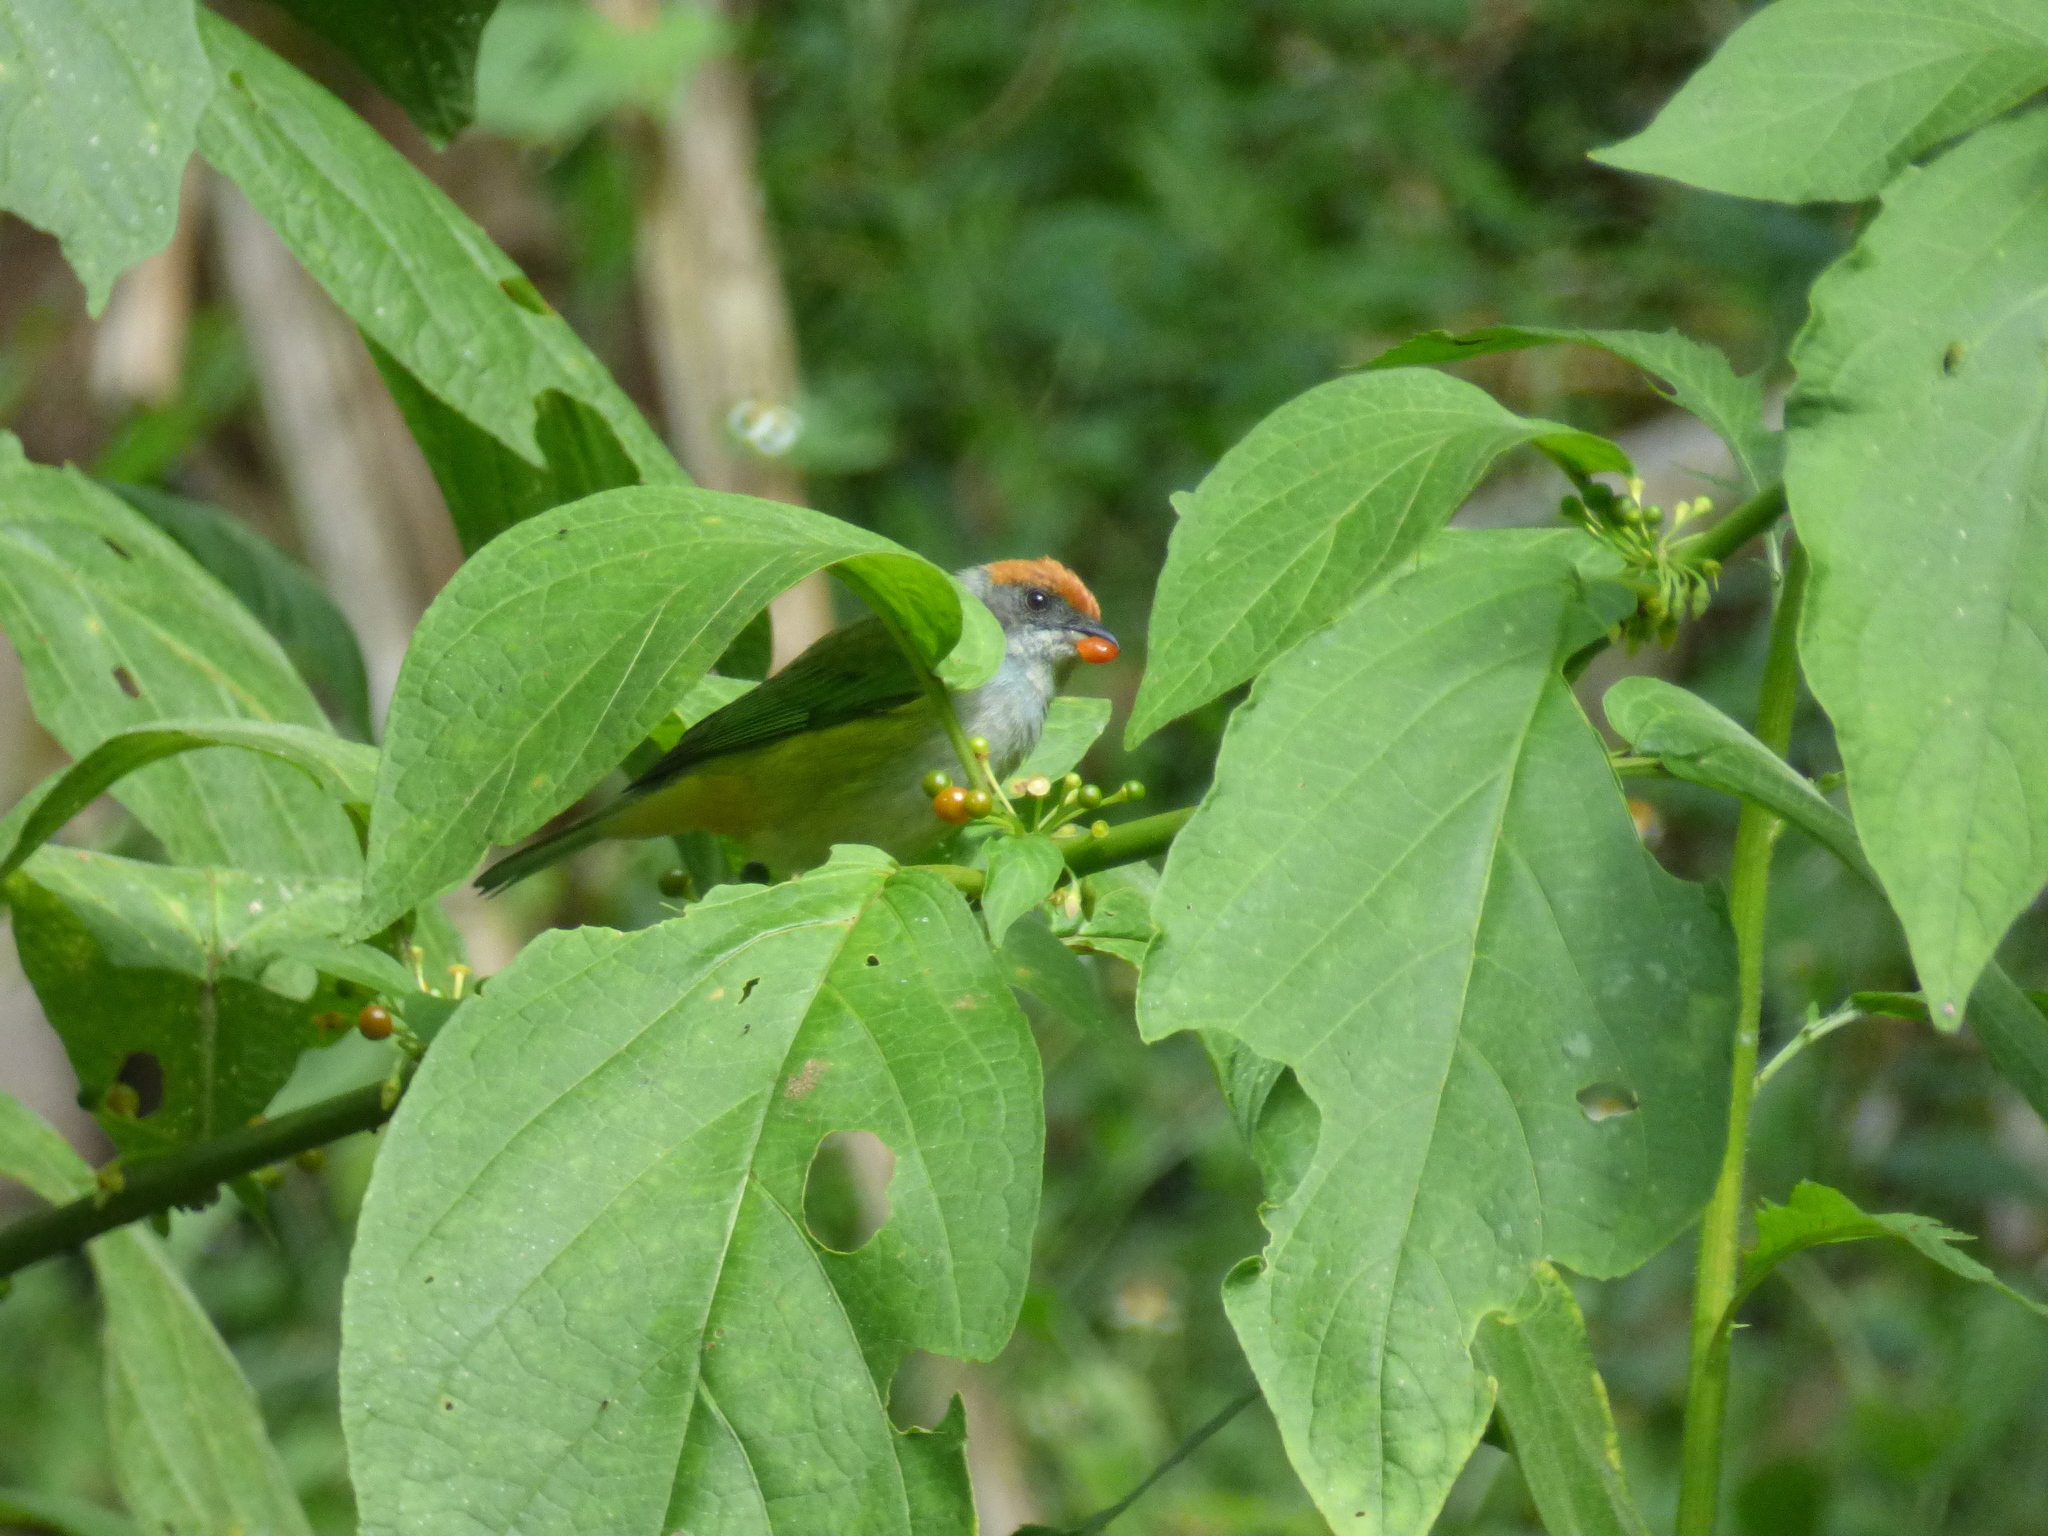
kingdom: Animalia
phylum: Chordata
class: Aves
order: Passeriformes
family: Thraupidae
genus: Stilpnia
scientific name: Stilpnia vitriolina
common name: Scrub tanager
